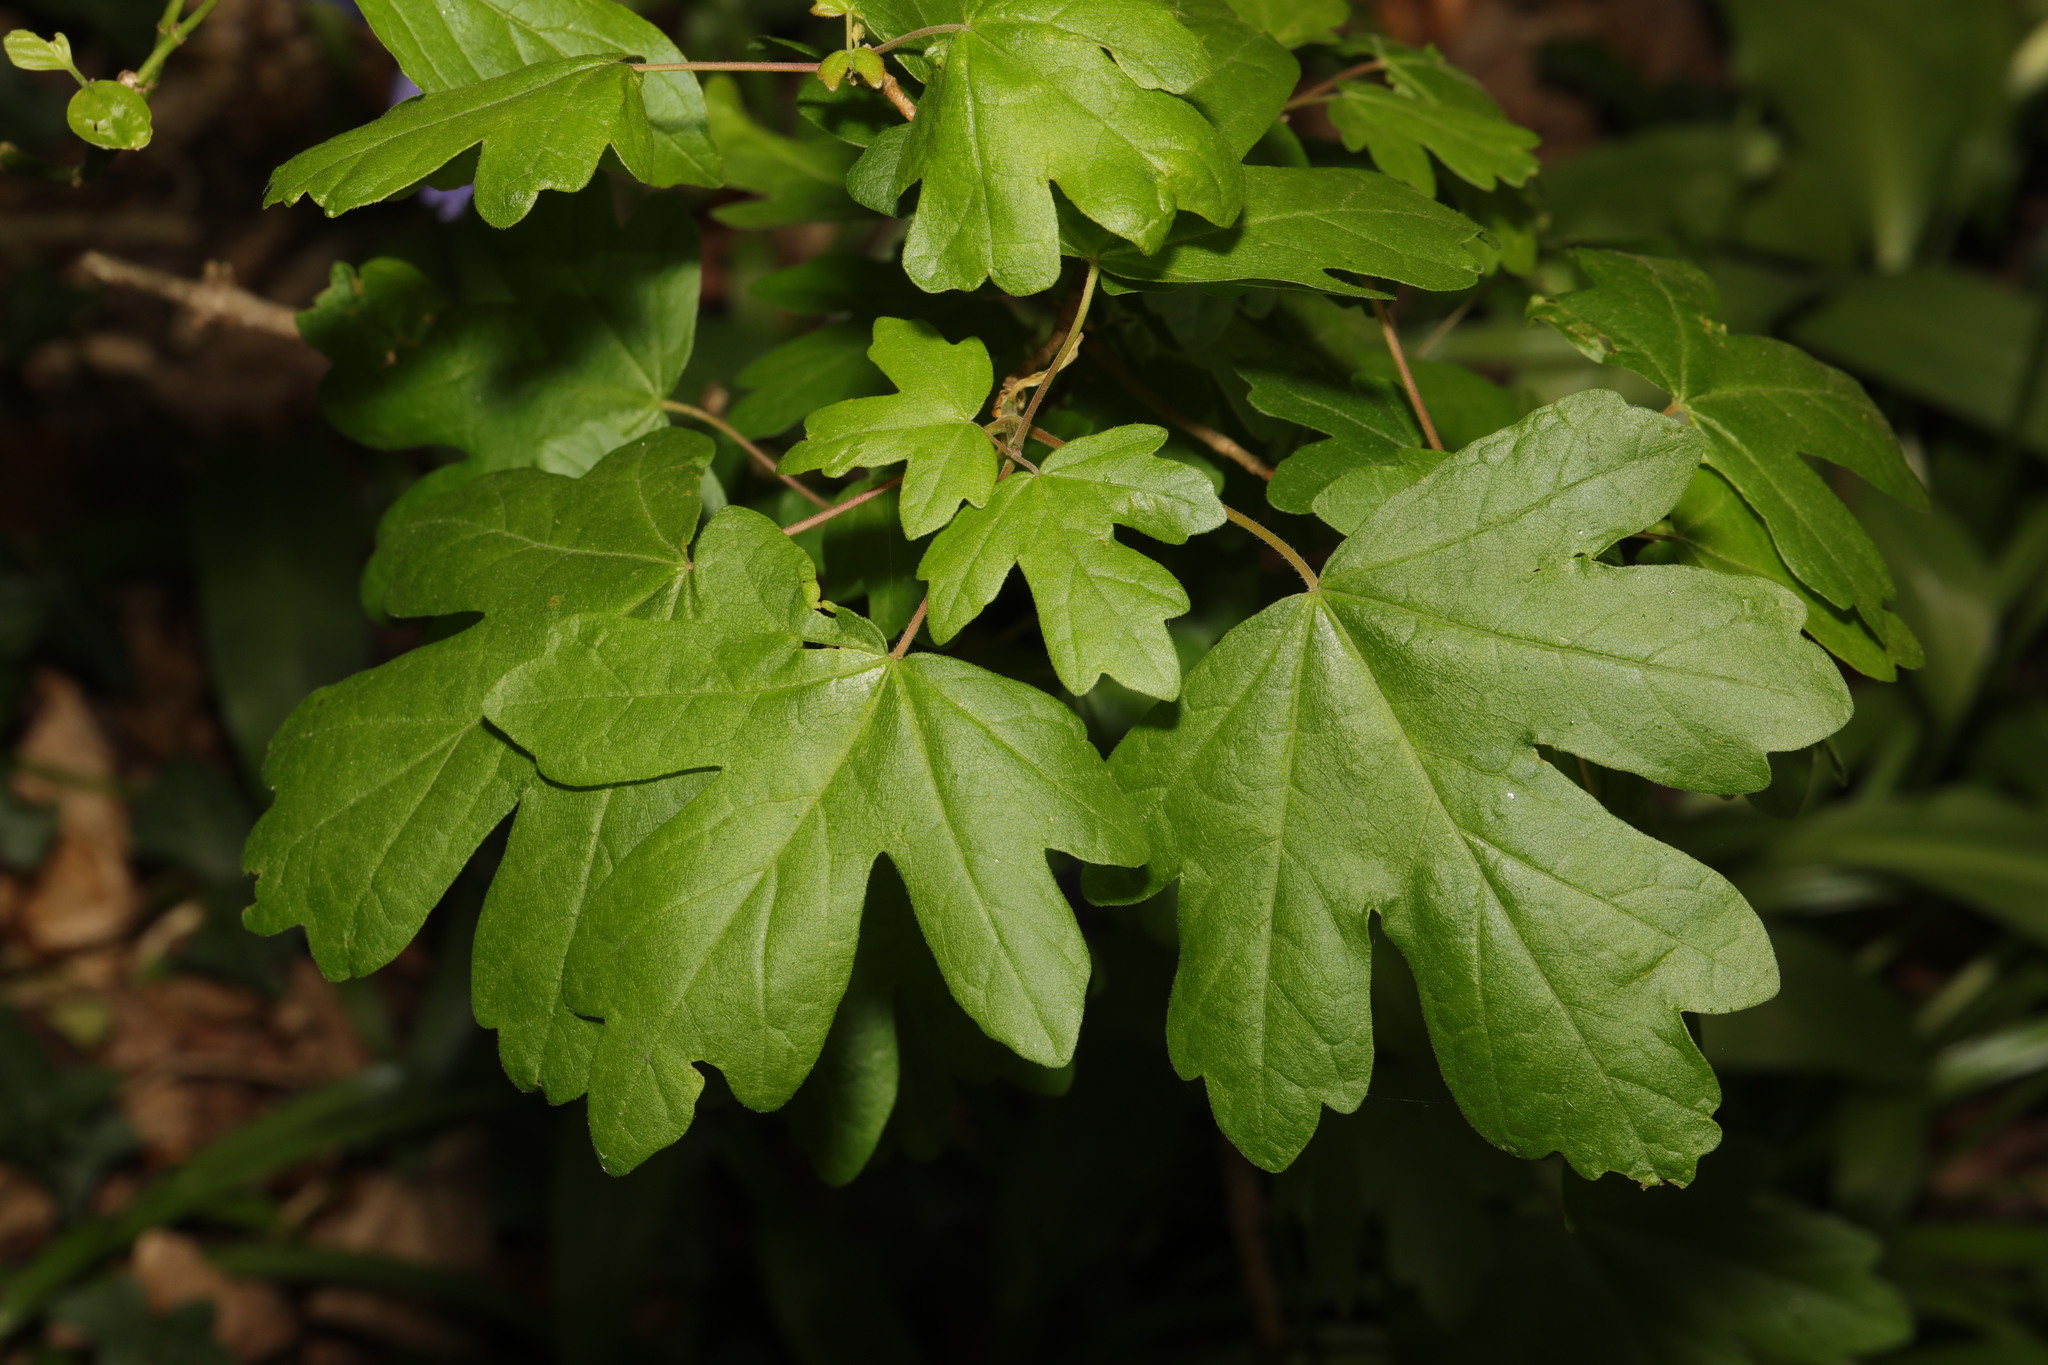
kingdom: Plantae
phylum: Tracheophyta
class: Magnoliopsida
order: Sapindales
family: Sapindaceae
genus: Acer
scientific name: Acer campestre
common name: Field maple
